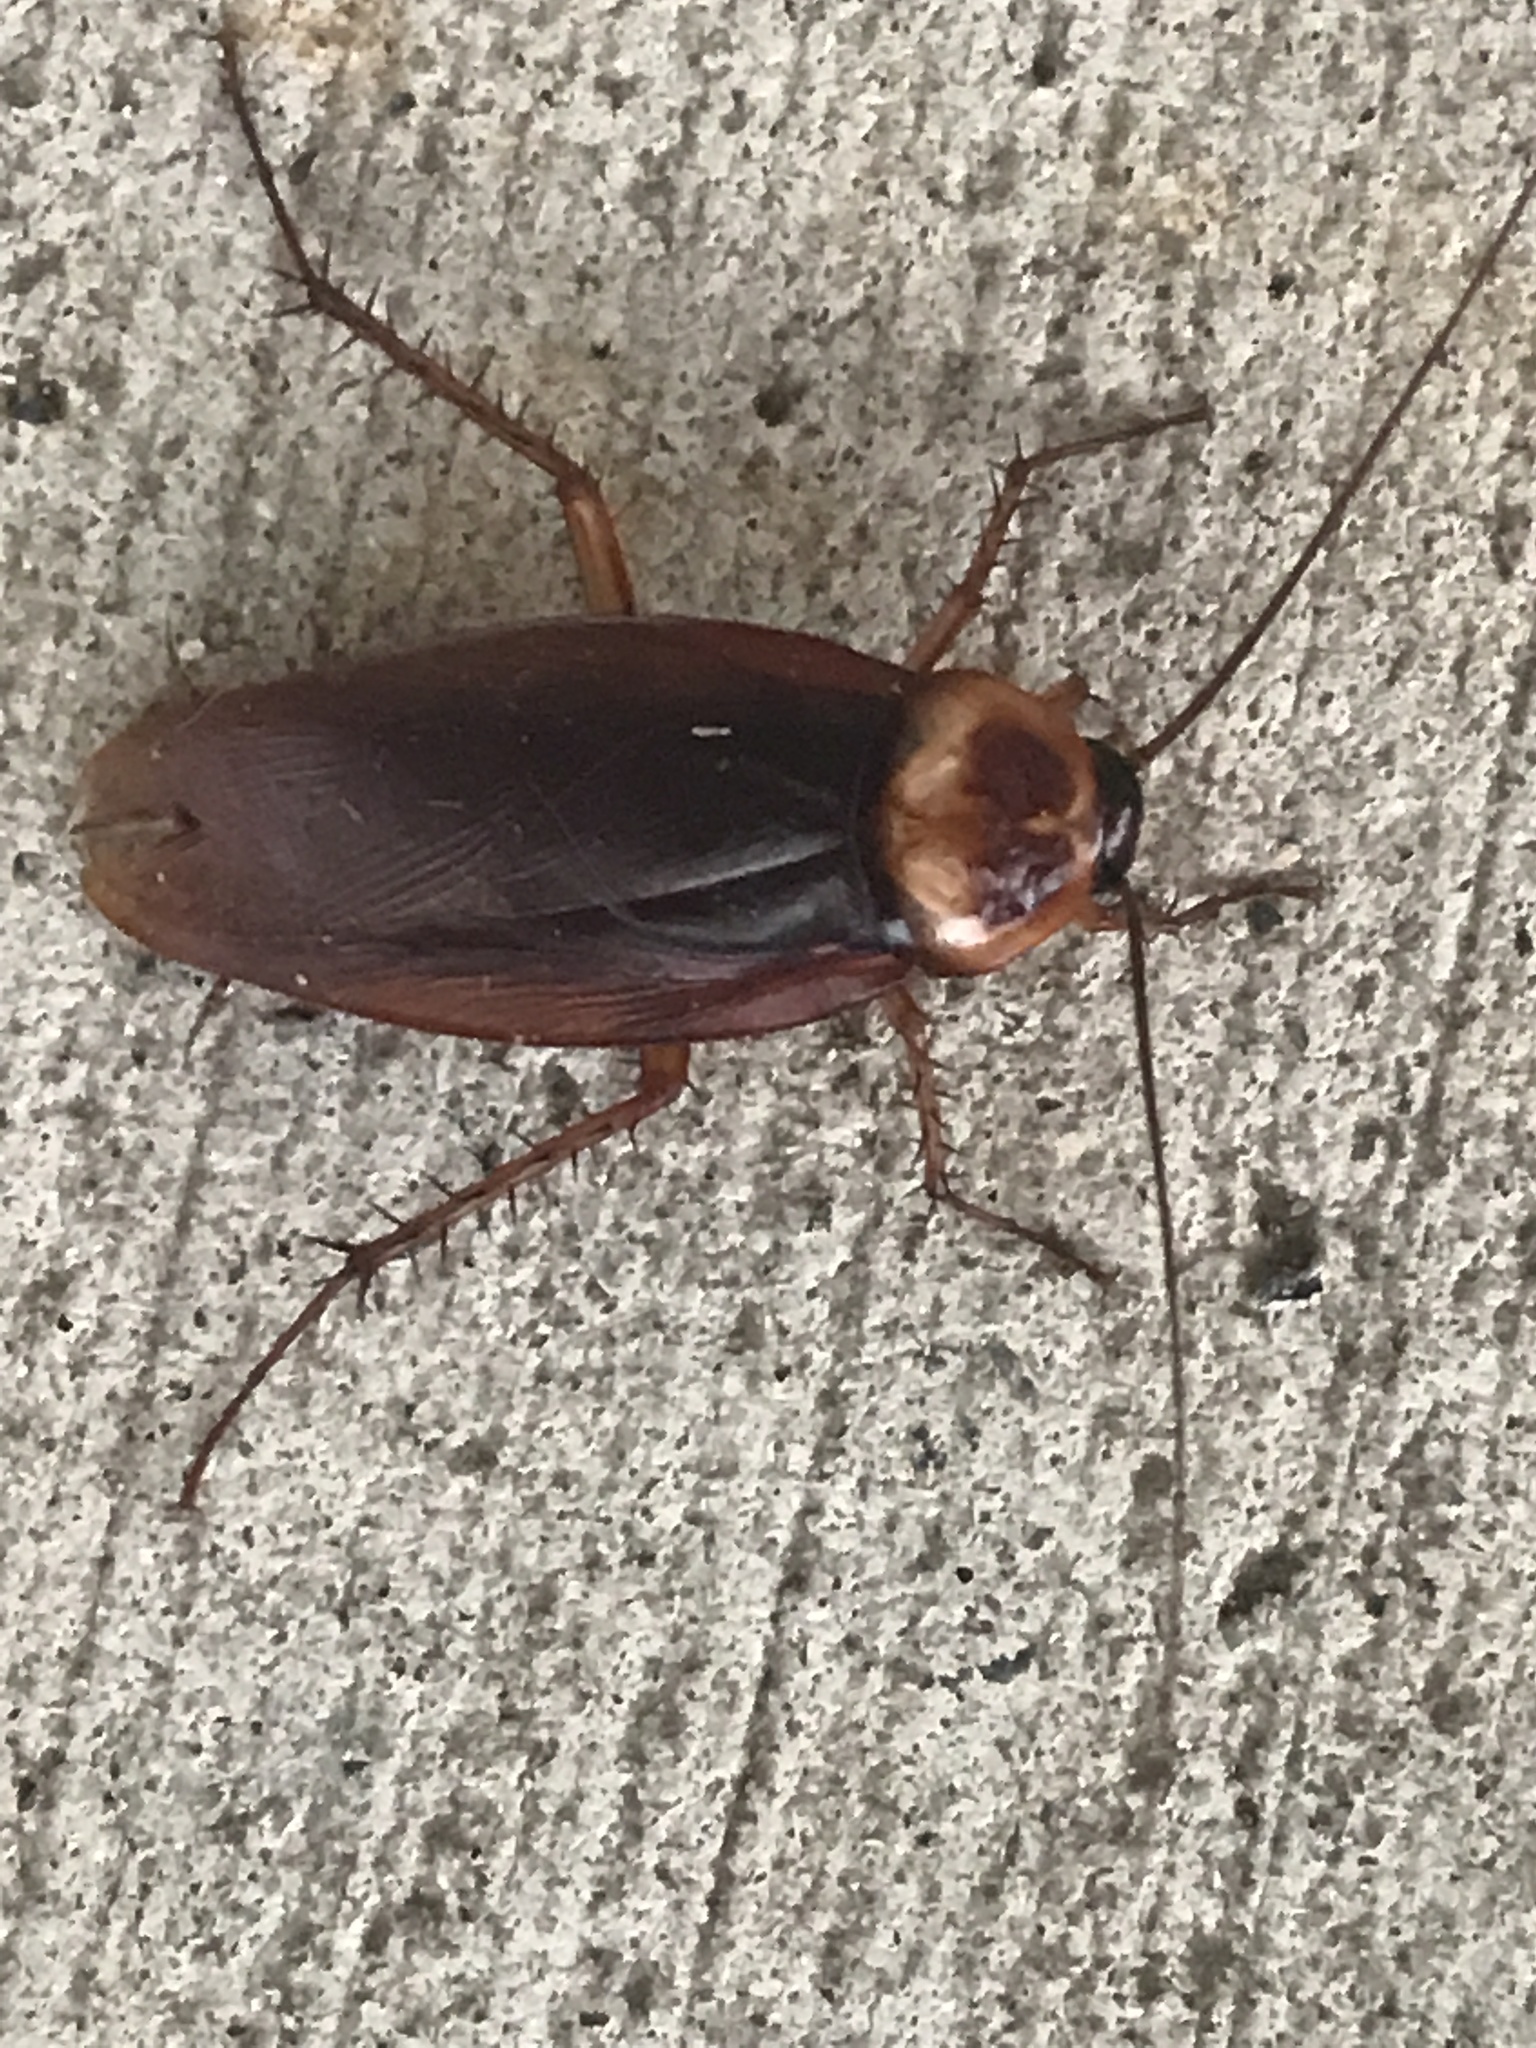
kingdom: Animalia
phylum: Arthropoda
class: Insecta
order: Blattodea
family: Blattidae
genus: Periplaneta
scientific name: Periplaneta americana
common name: American cockroach
